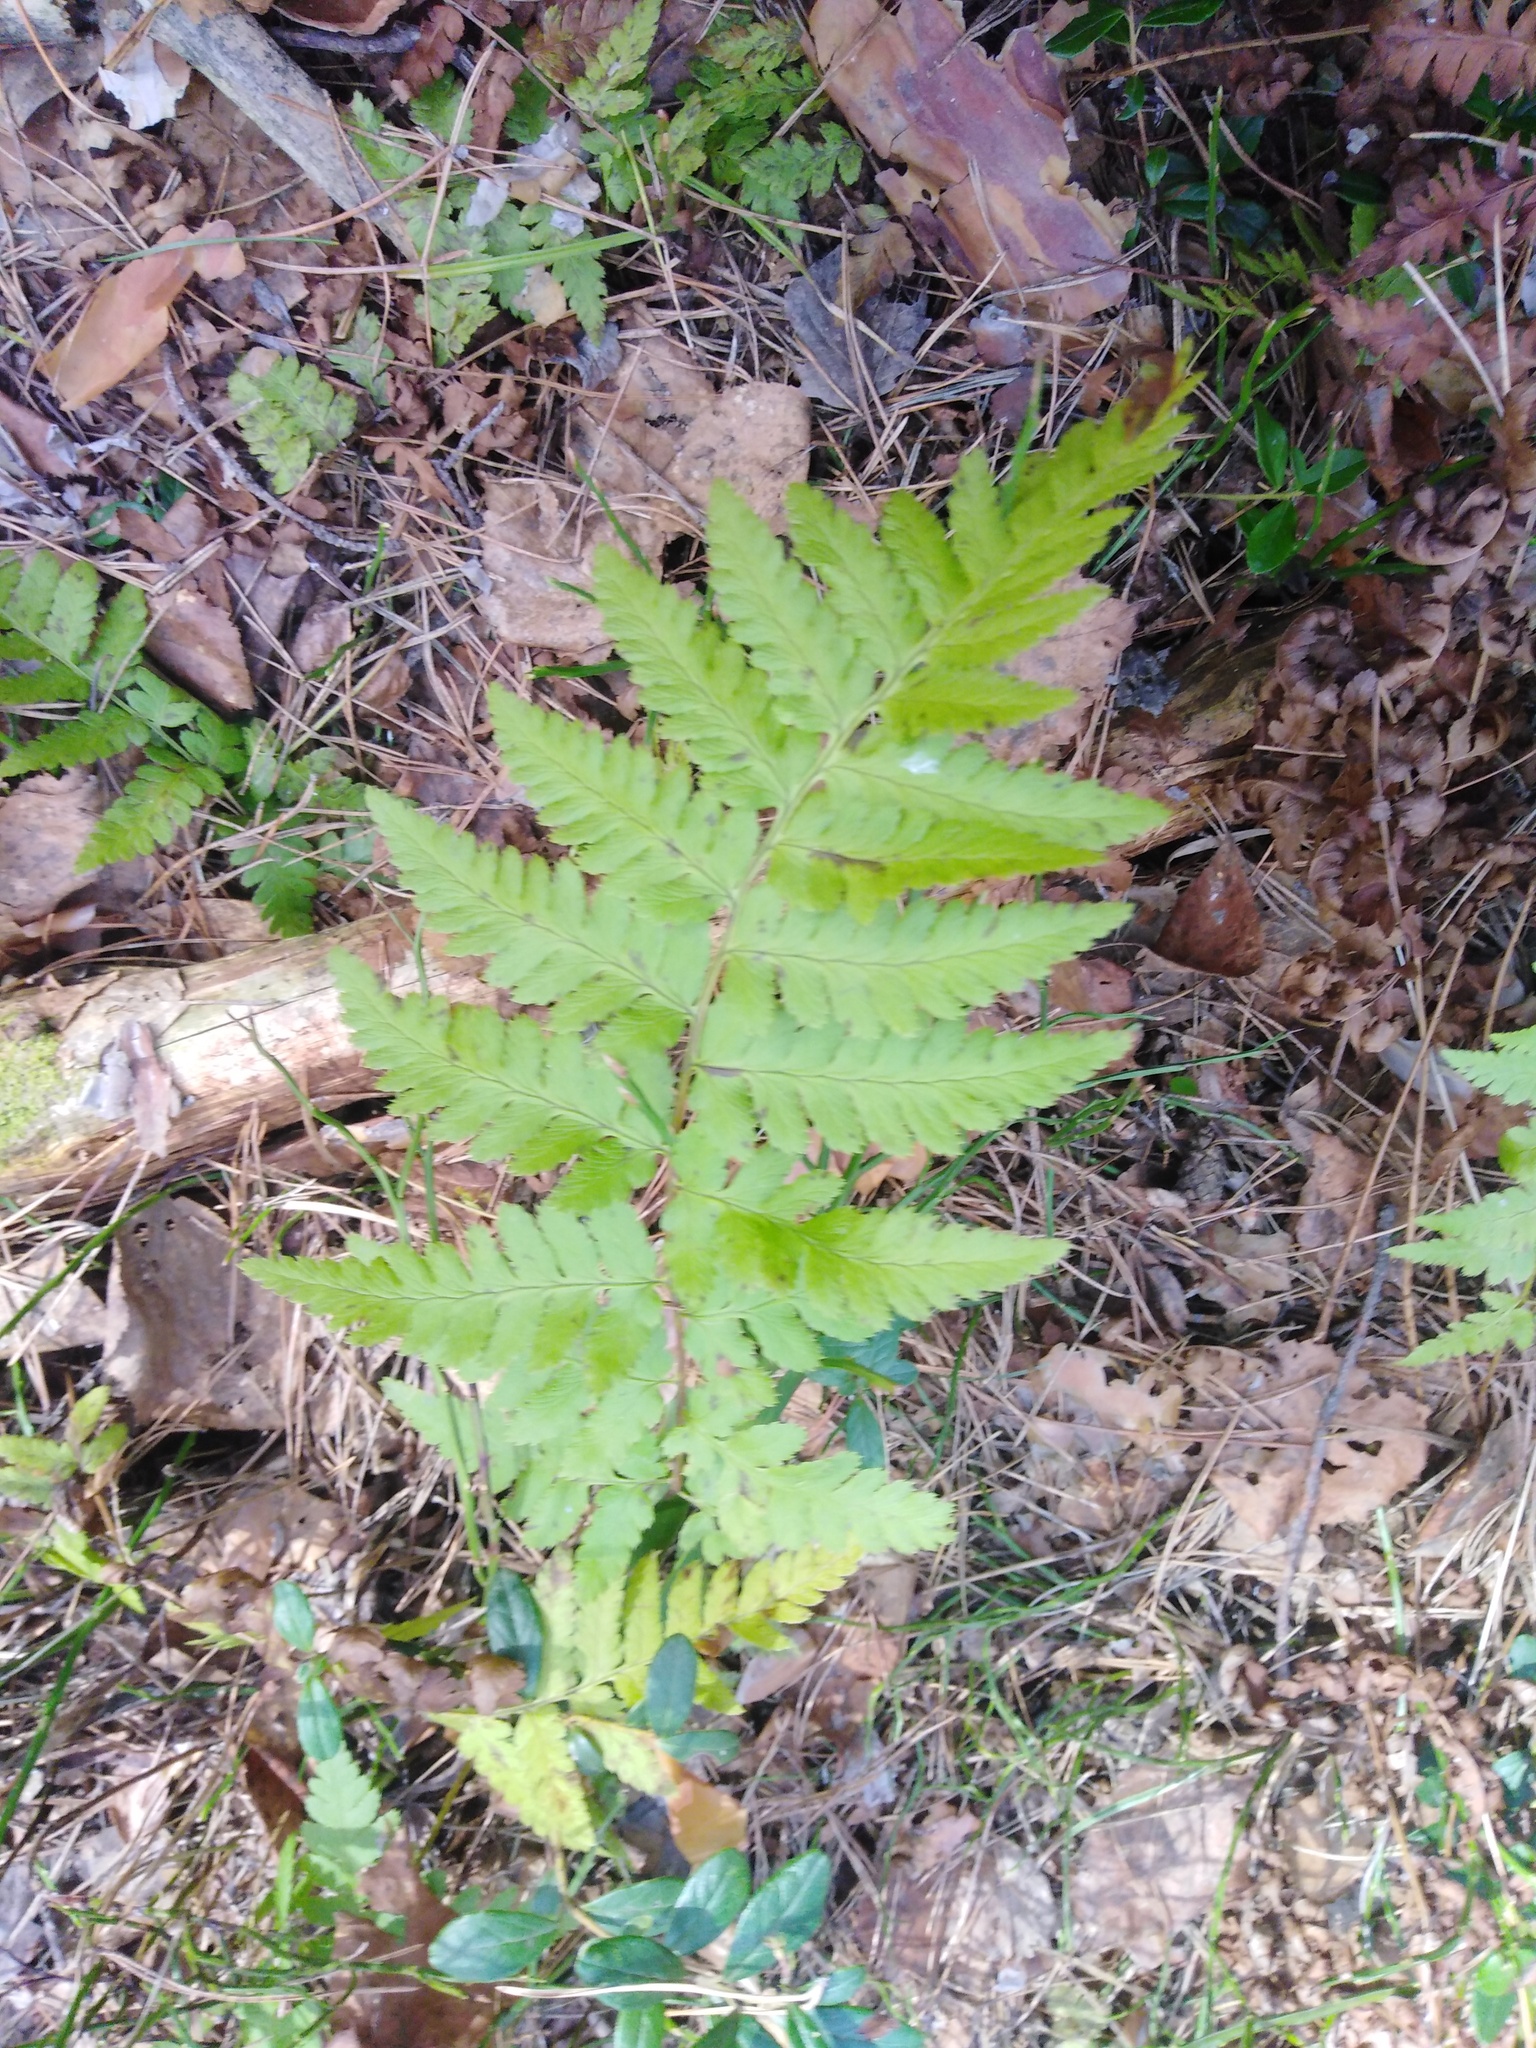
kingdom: Plantae
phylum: Tracheophyta
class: Polypodiopsida
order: Polypodiales
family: Dryopteridaceae
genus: Dryopteris
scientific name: Dryopteris carthusiana
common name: Narrow buckler-fern
